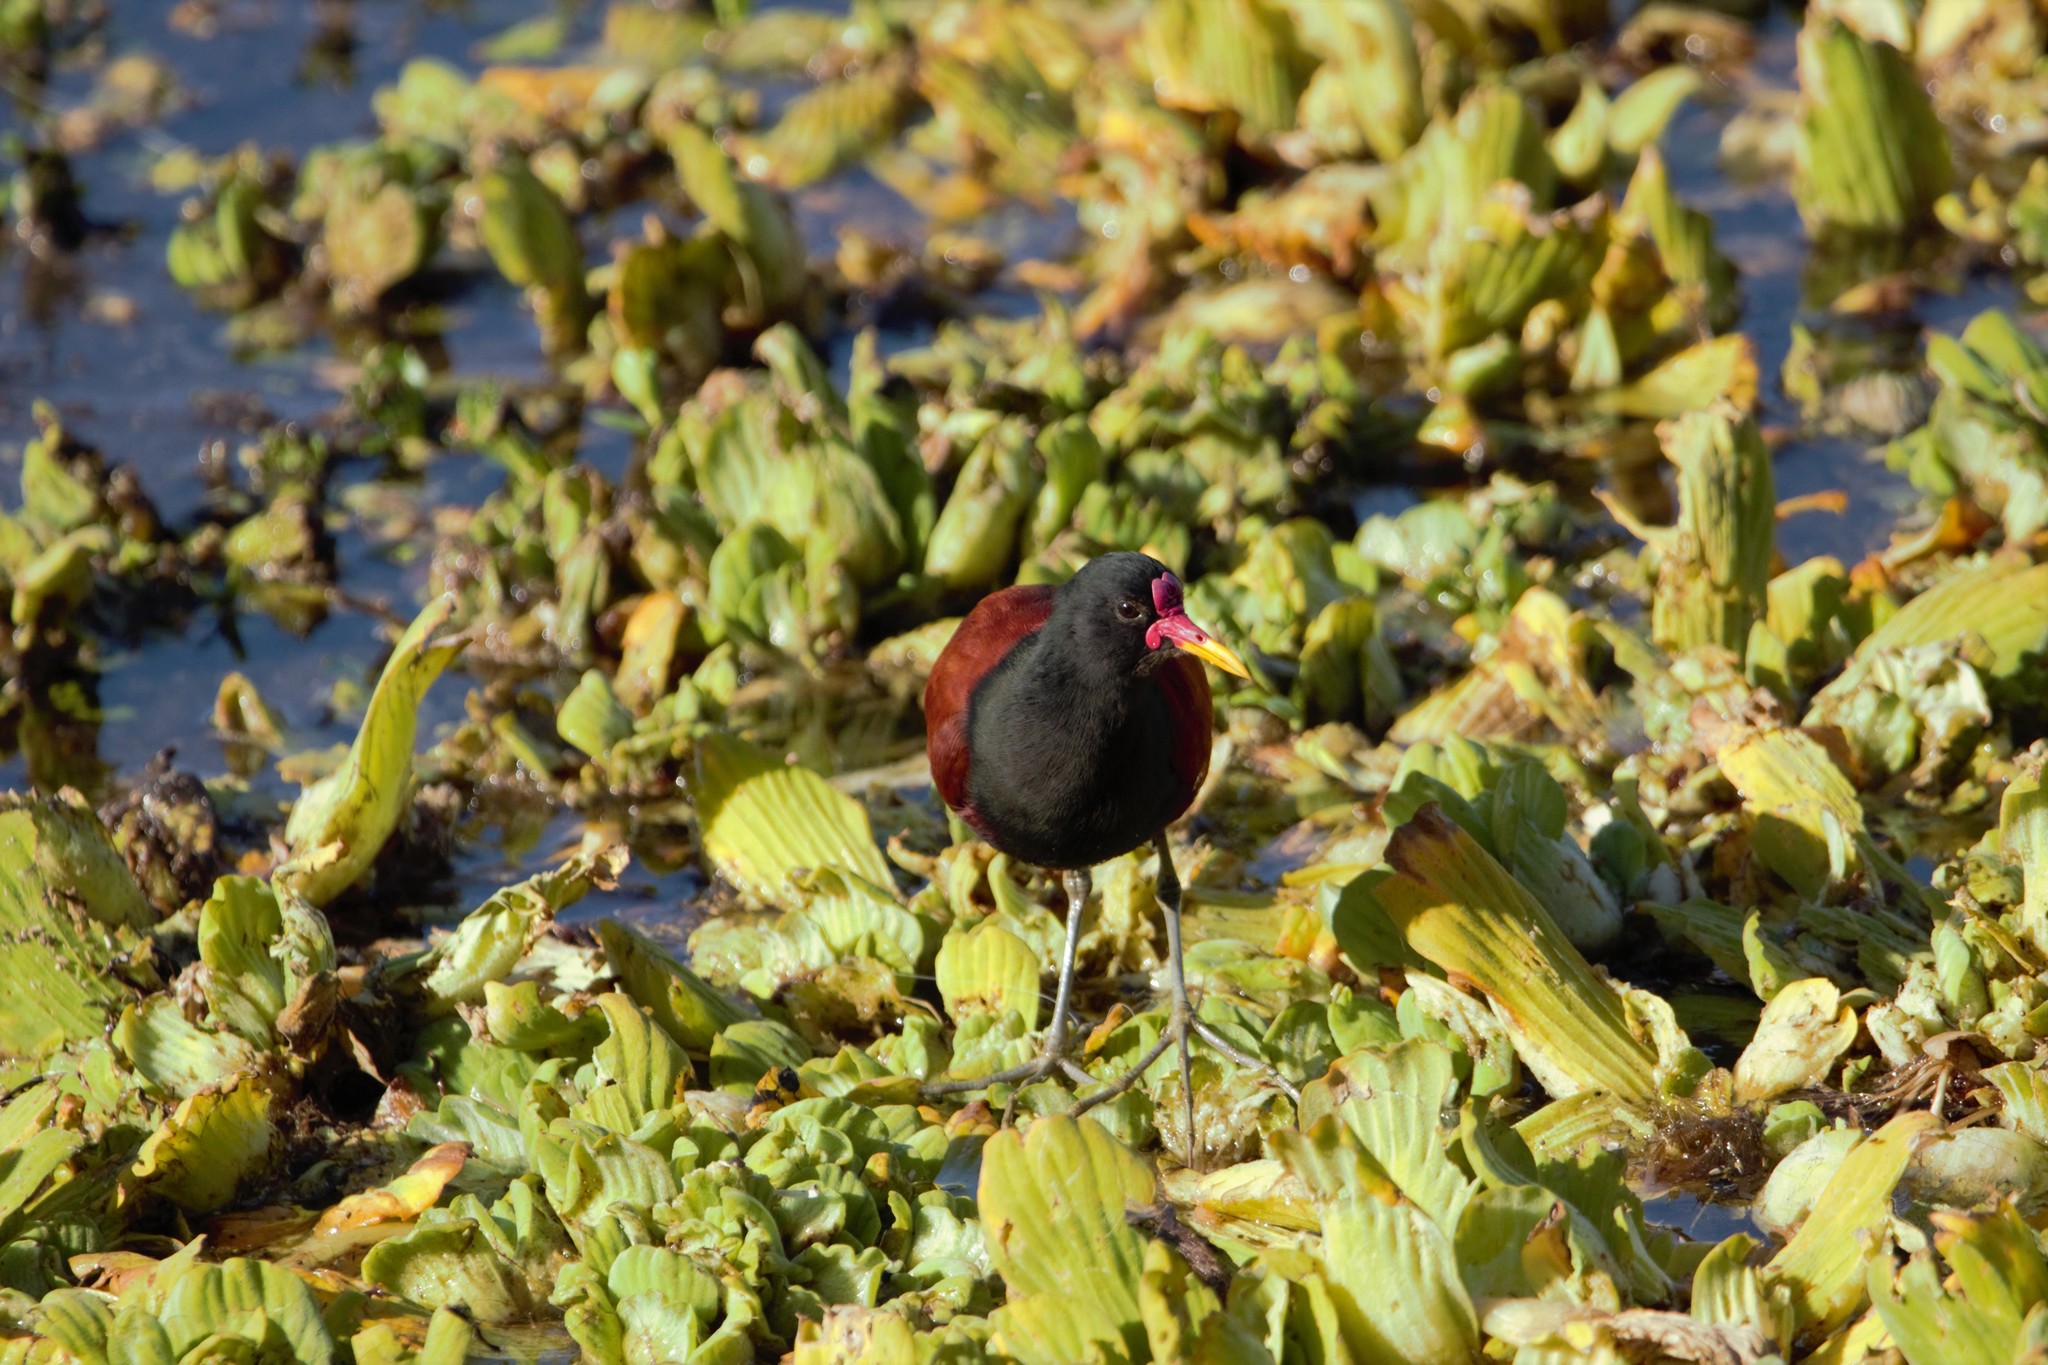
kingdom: Animalia
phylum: Chordata
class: Aves
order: Charadriiformes
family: Jacanidae
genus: Jacana
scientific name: Jacana jacana
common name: Wattled jacana
